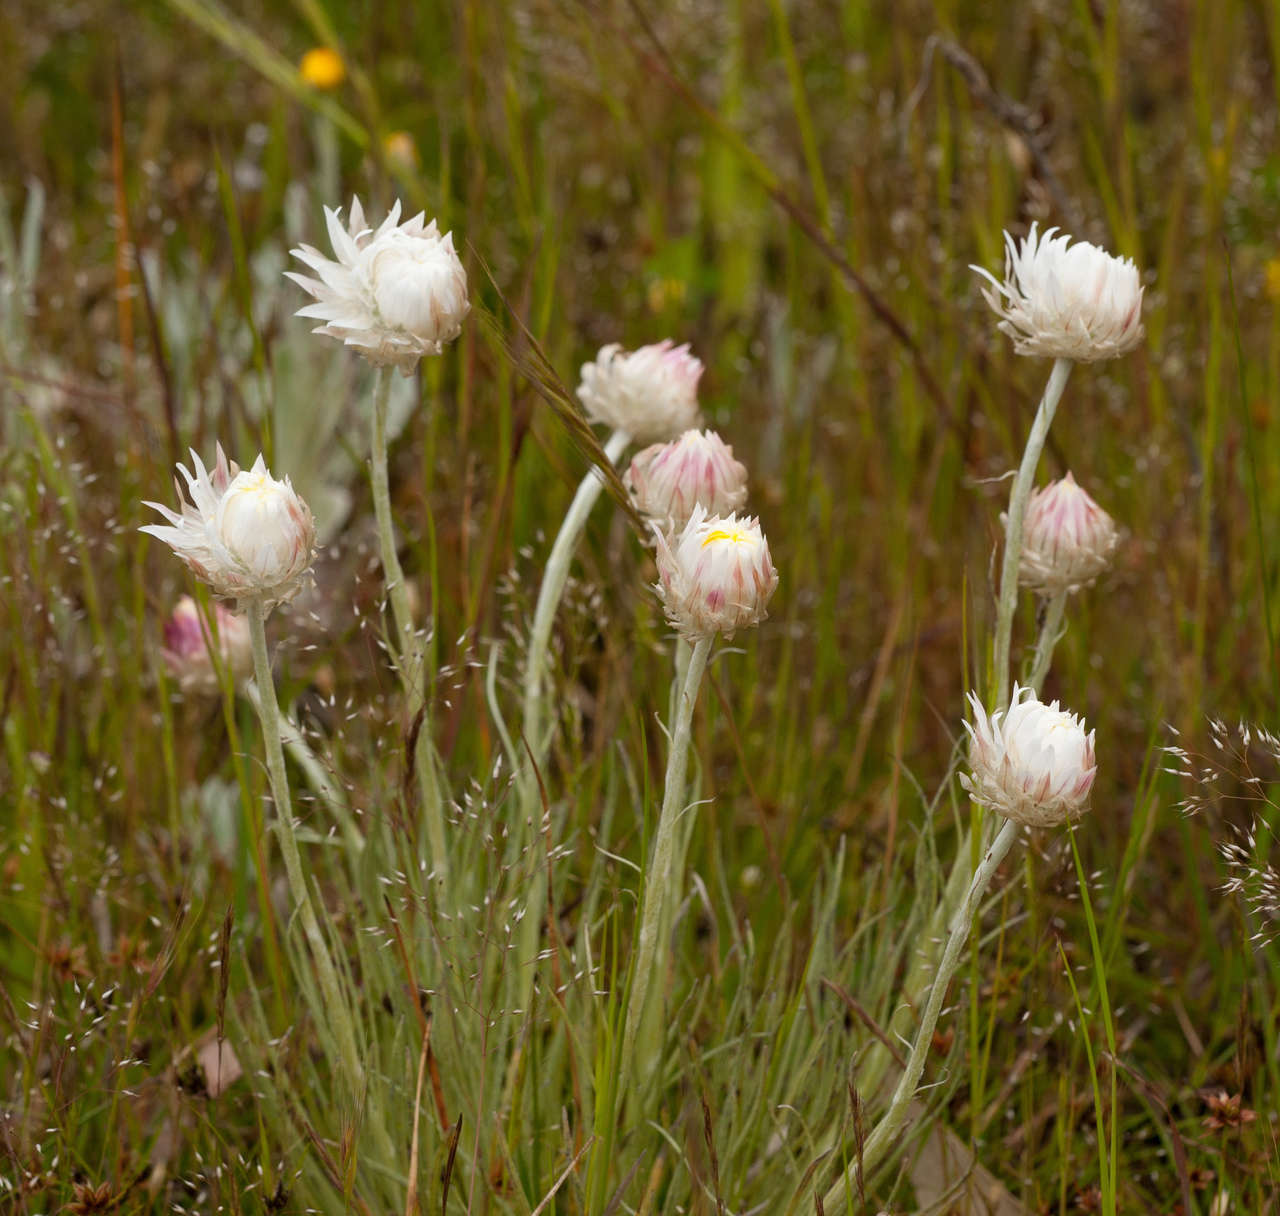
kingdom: Plantae
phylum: Tracheophyta
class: Magnoliopsida
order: Asterales
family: Asteraceae
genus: Leucochrysum
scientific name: Leucochrysum albicans
